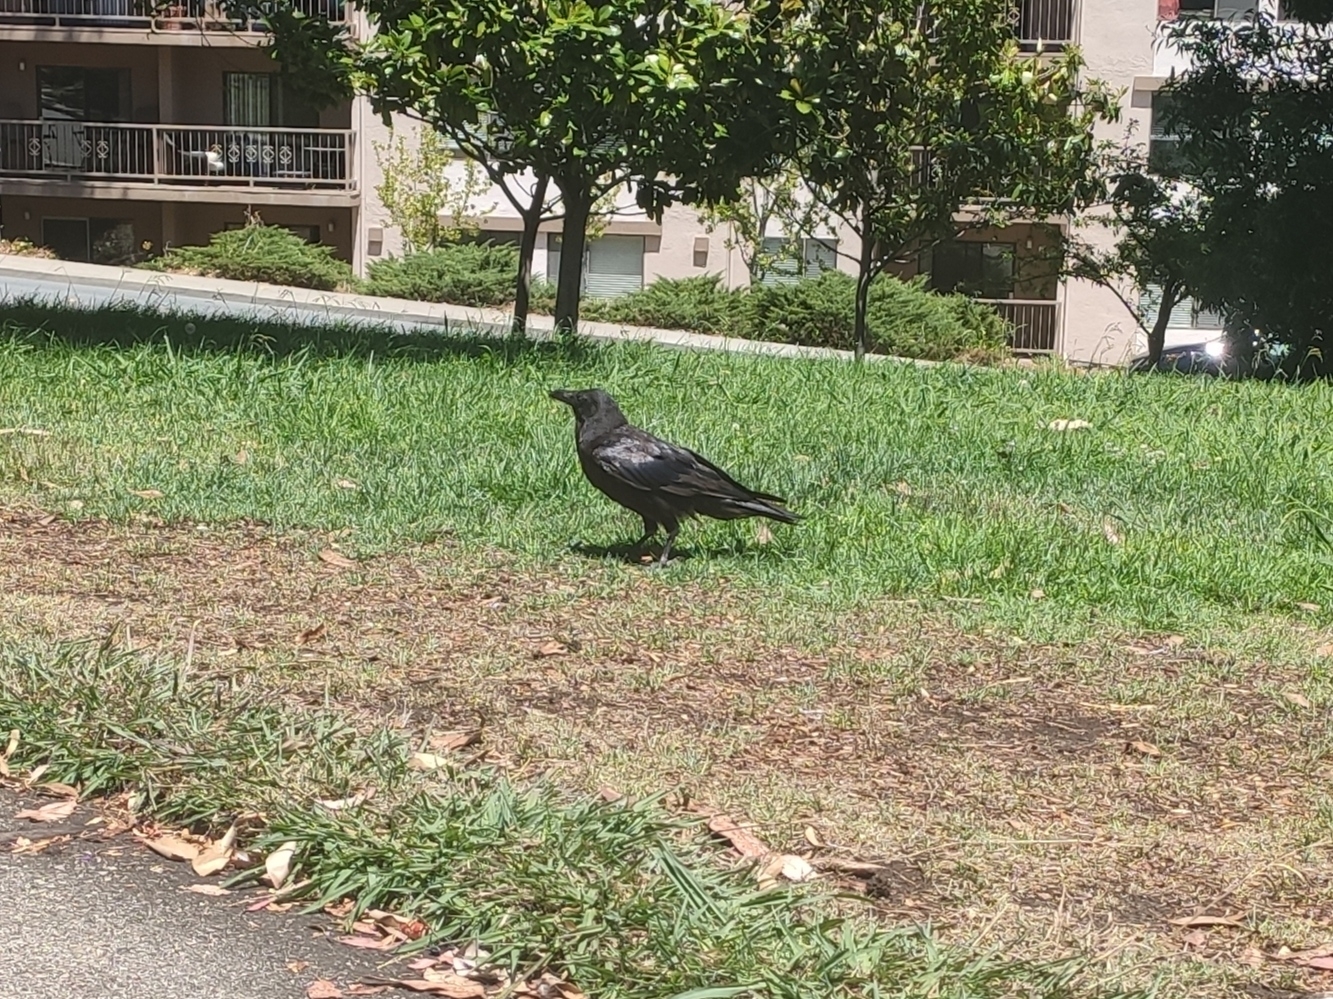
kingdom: Animalia
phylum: Chordata
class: Aves
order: Passeriformes
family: Corvidae
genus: Corvus
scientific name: Corvus corax
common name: Common raven
